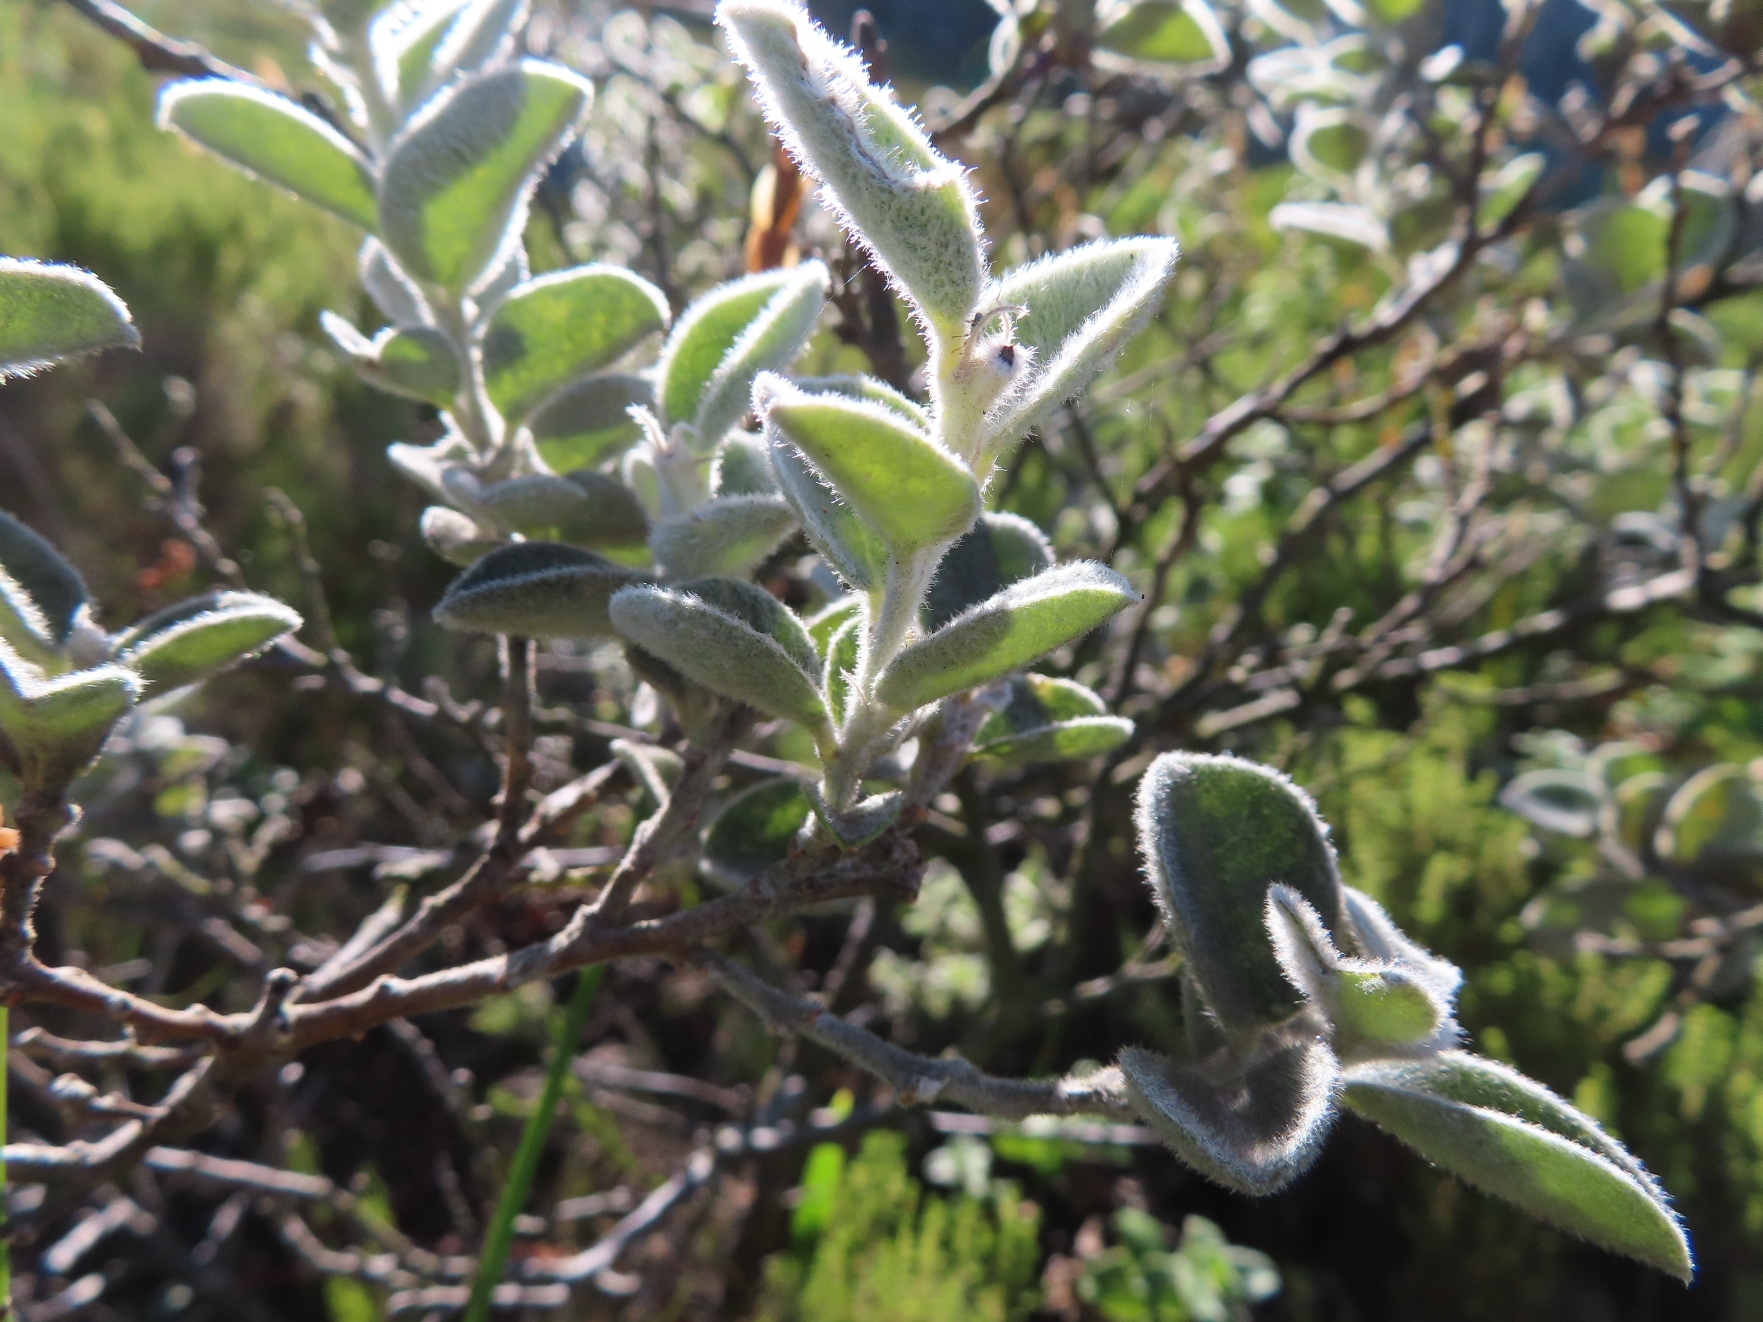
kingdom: Plantae
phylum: Tracheophyta
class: Magnoliopsida
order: Fabales
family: Fabaceae
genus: Podalyria
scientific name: Podalyria hirsuta
